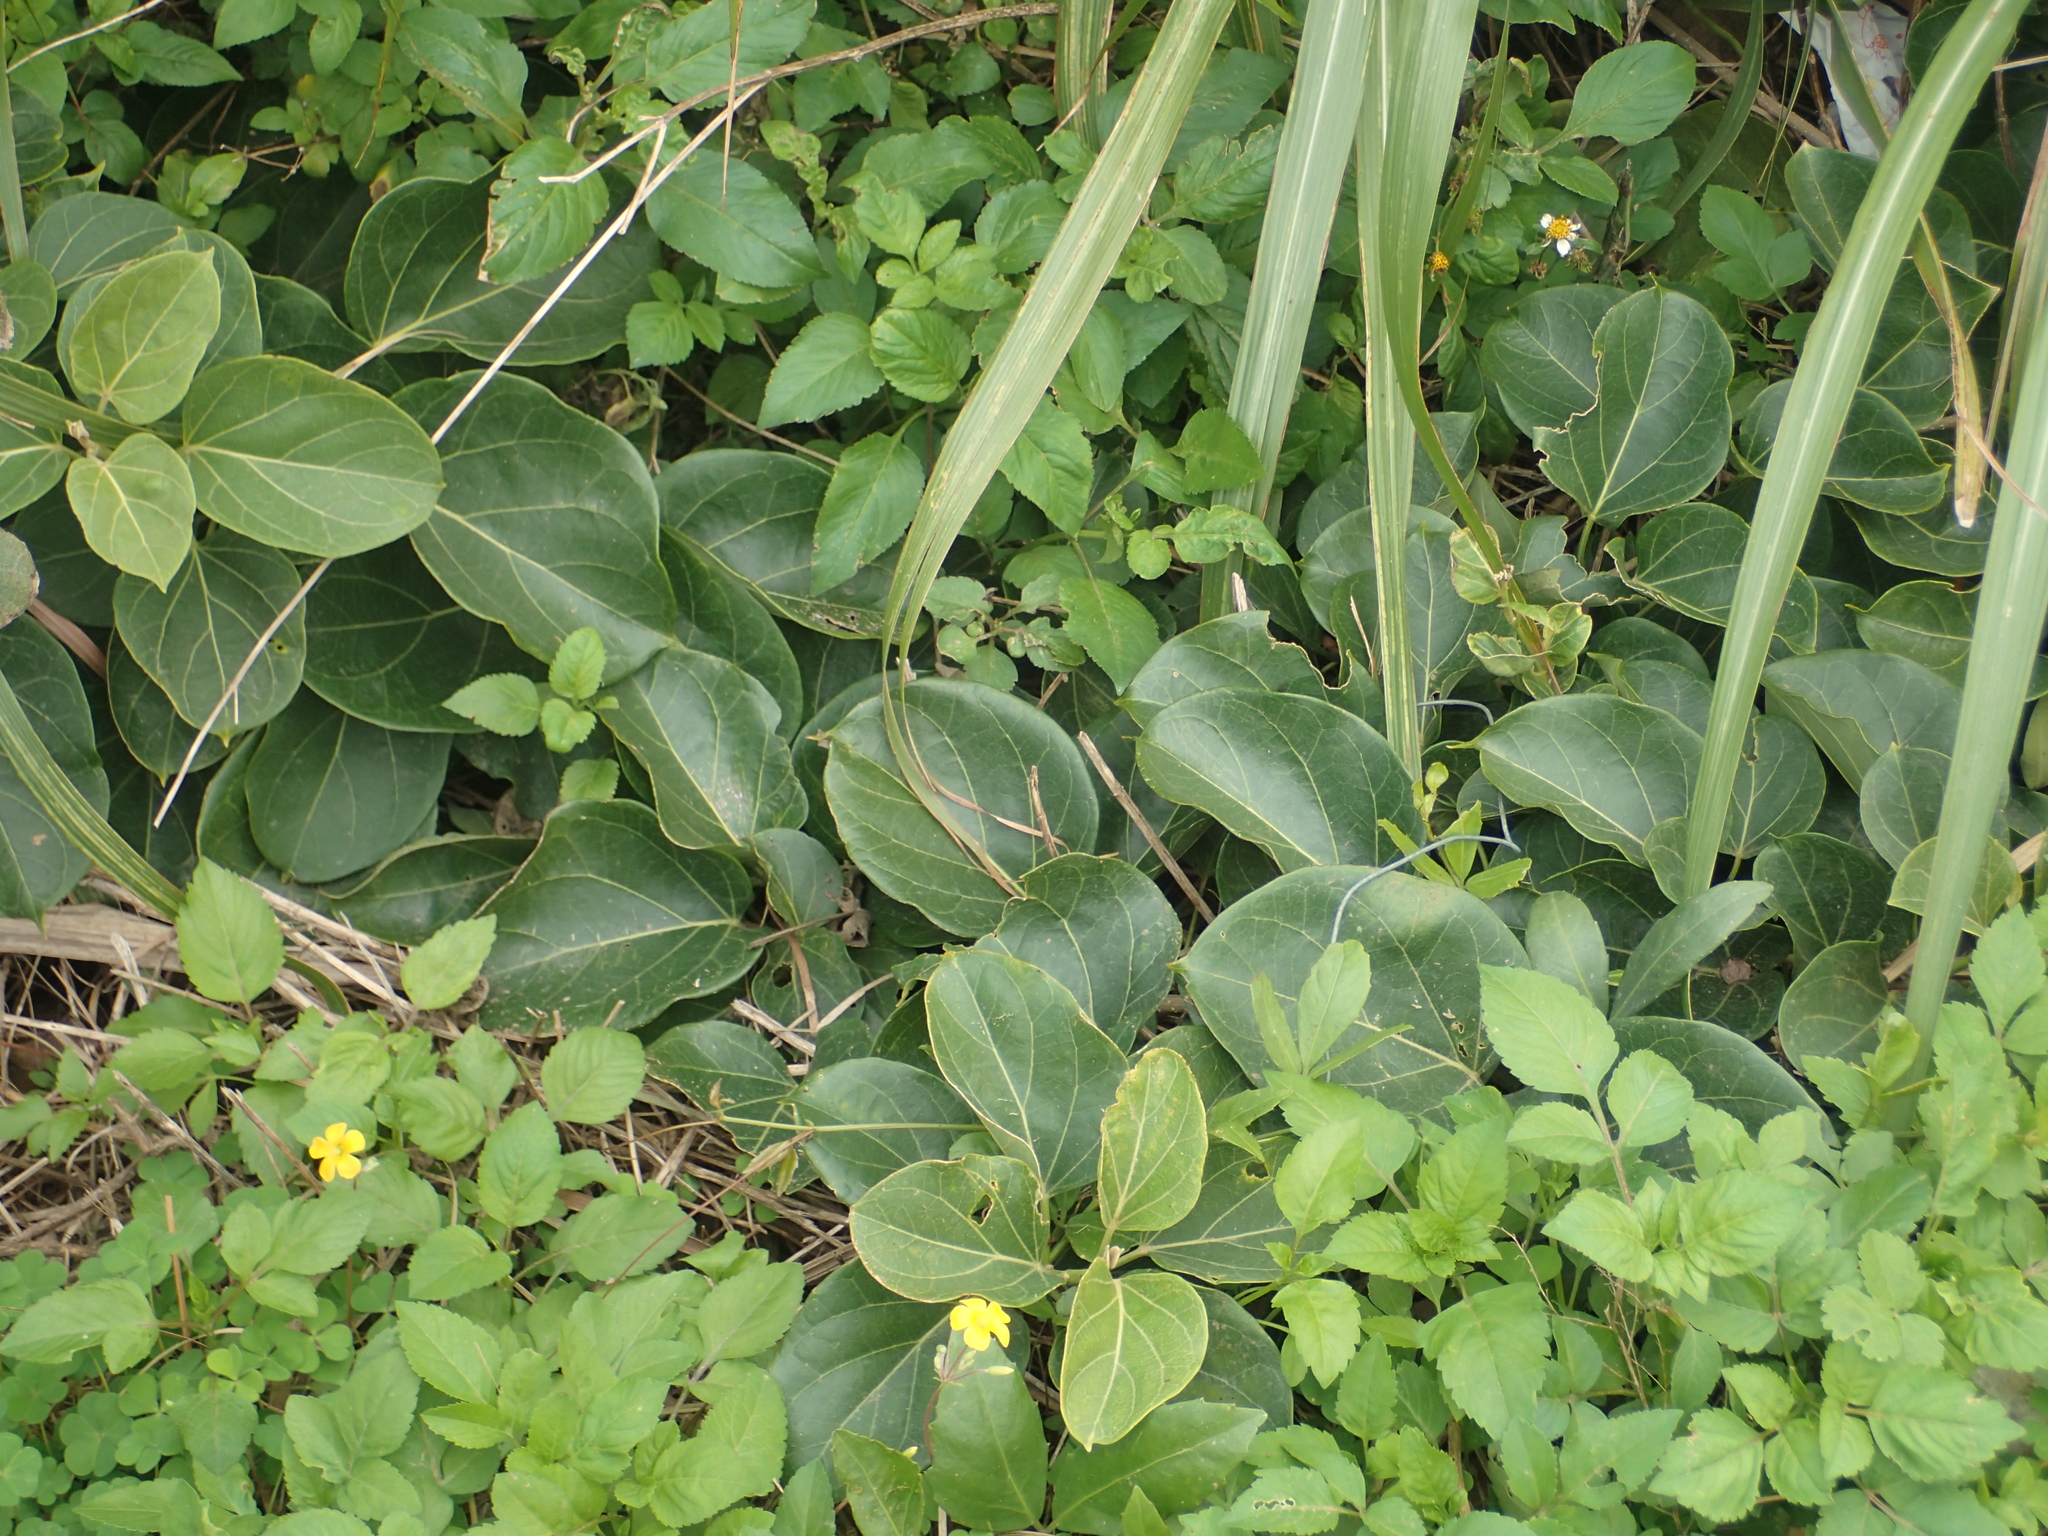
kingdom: Plantae
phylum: Tracheophyta
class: Magnoliopsida
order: Gentianales
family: Apocynaceae
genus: Stephanotis
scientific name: Stephanotis volubilis
